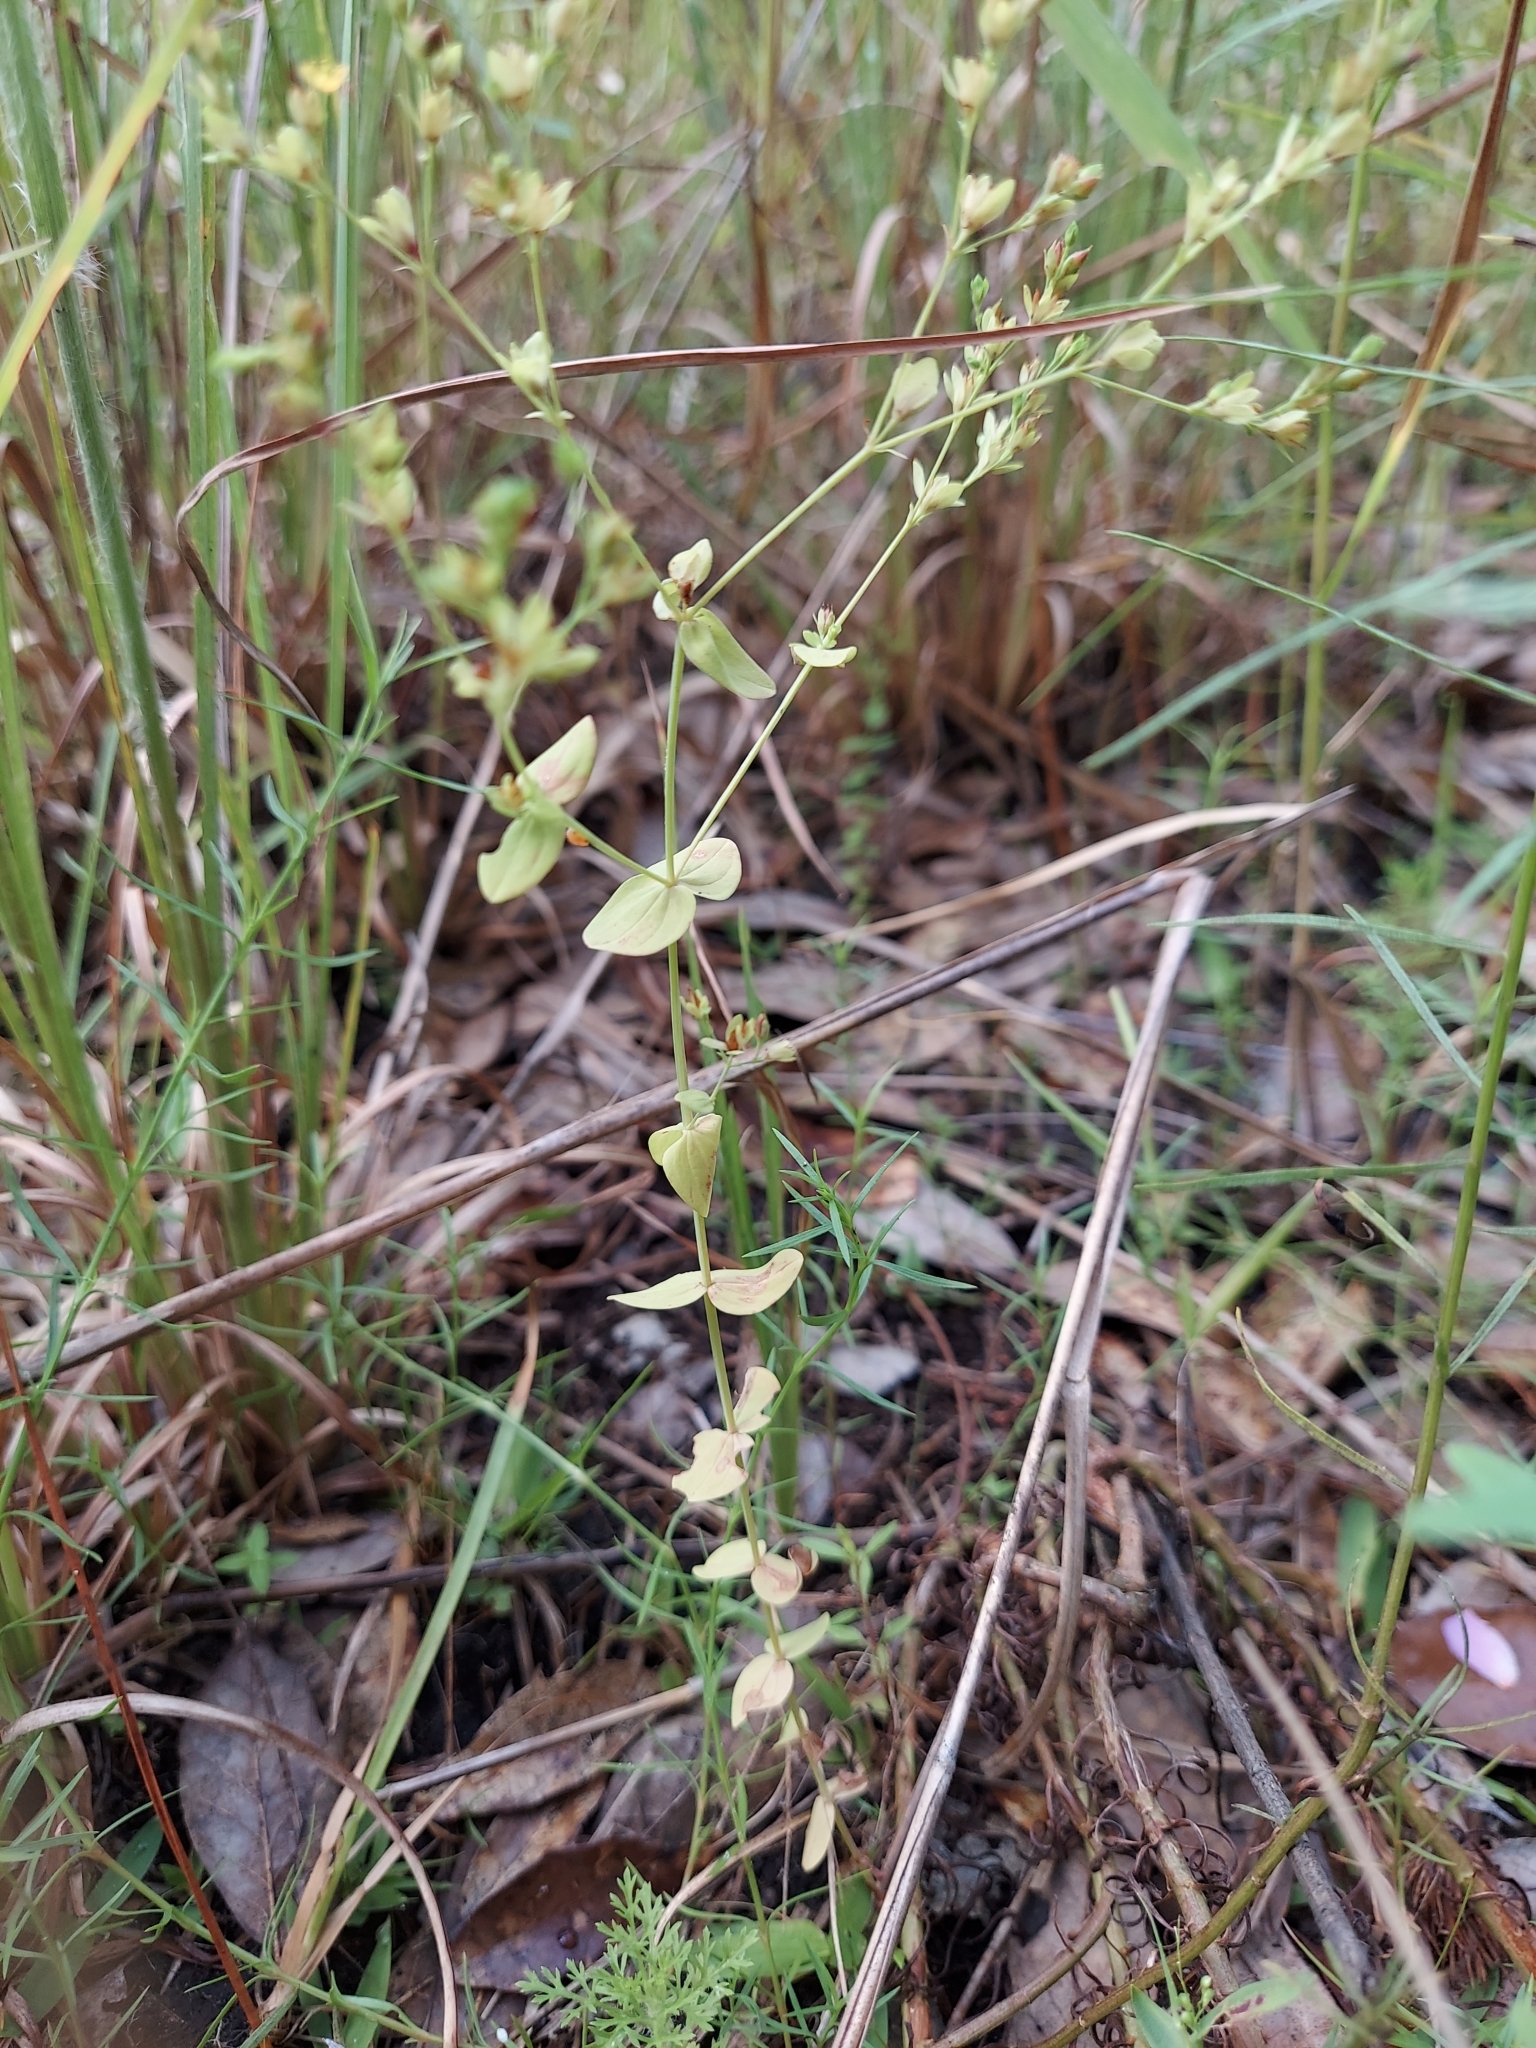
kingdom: Plantae
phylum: Tracheophyta
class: Magnoliopsida
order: Malpighiales
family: Hypericaceae
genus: Hypericum
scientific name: Hypericum mutilum
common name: Dwarf st. john's-wort
